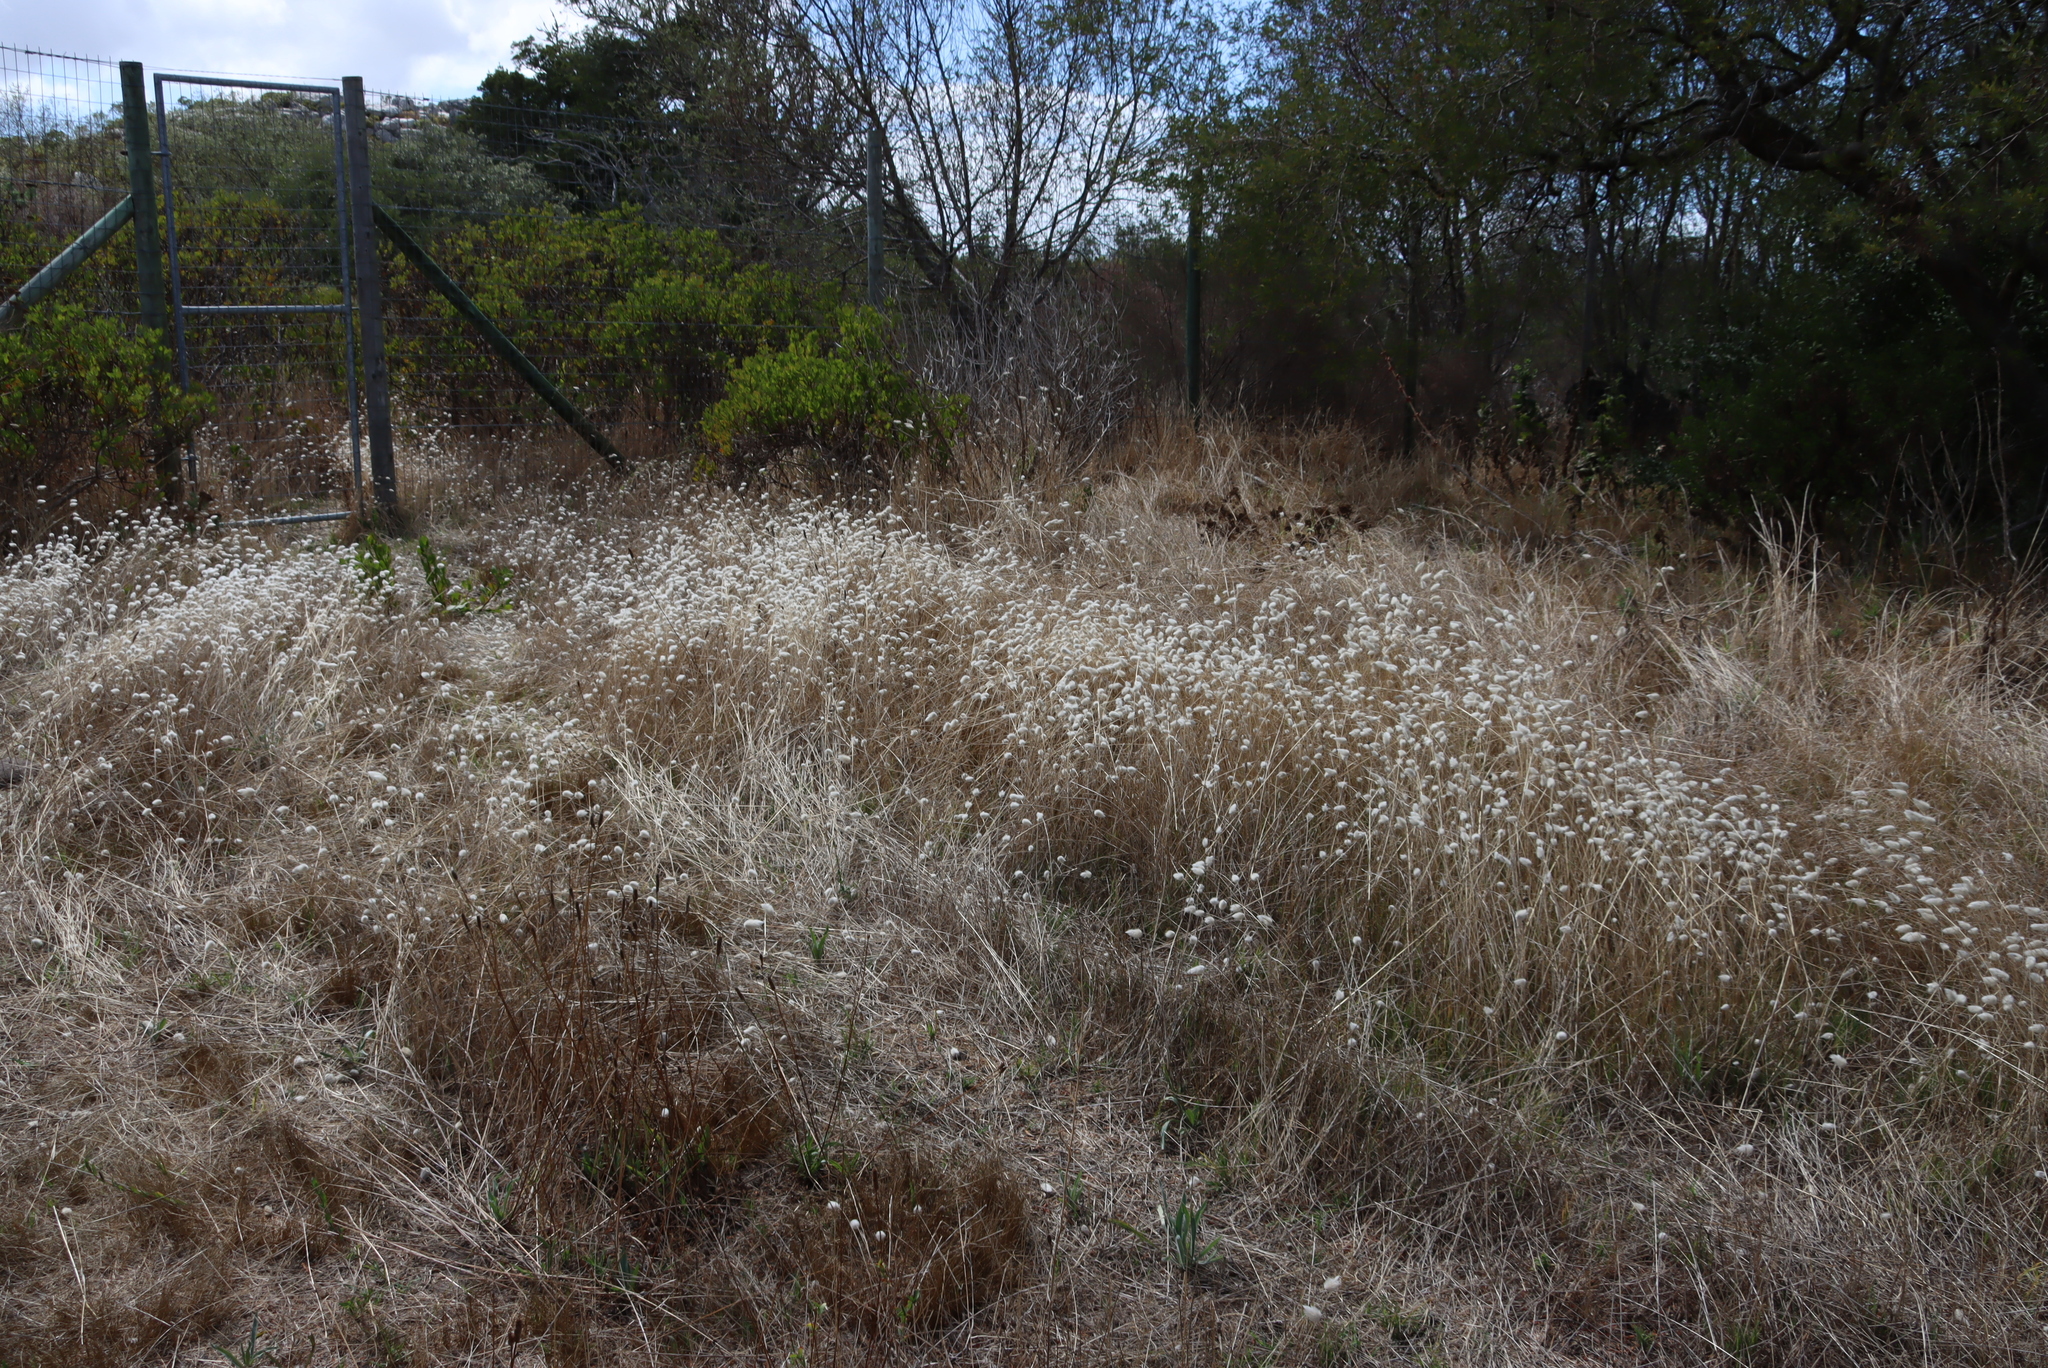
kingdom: Plantae
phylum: Tracheophyta
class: Liliopsida
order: Poales
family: Poaceae
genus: Lagurus
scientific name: Lagurus ovatus
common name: Hare's-tail
